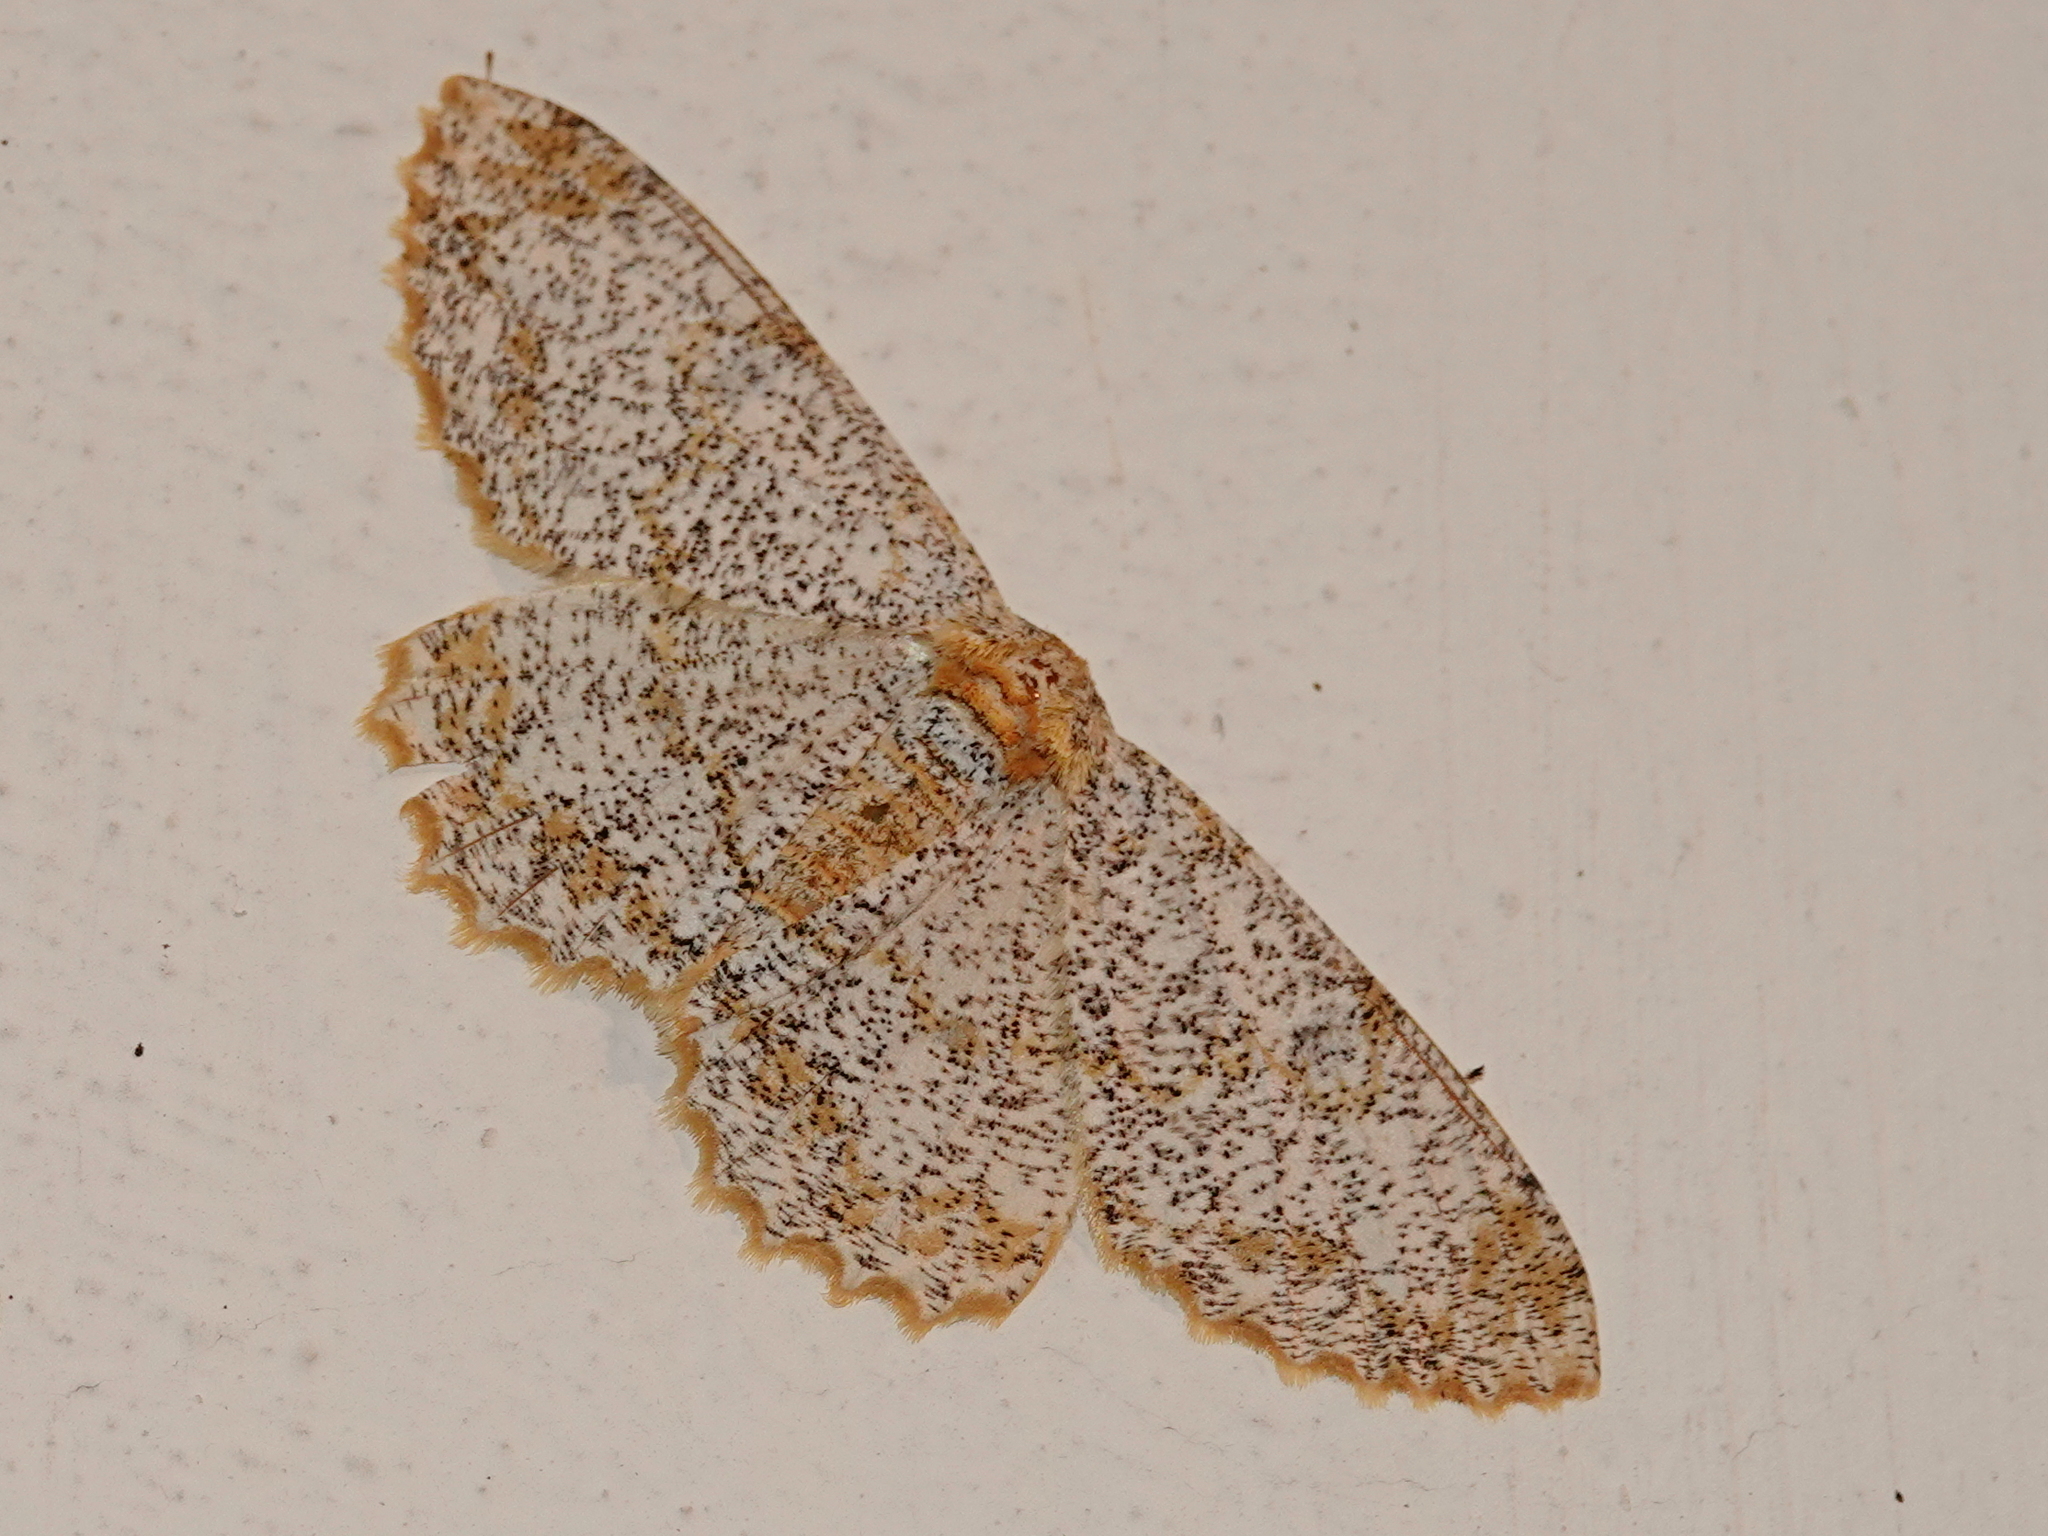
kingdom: Animalia
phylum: Arthropoda
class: Insecta
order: Lepidoptera
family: Geometridae
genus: Biston
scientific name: Biston suppressaria
